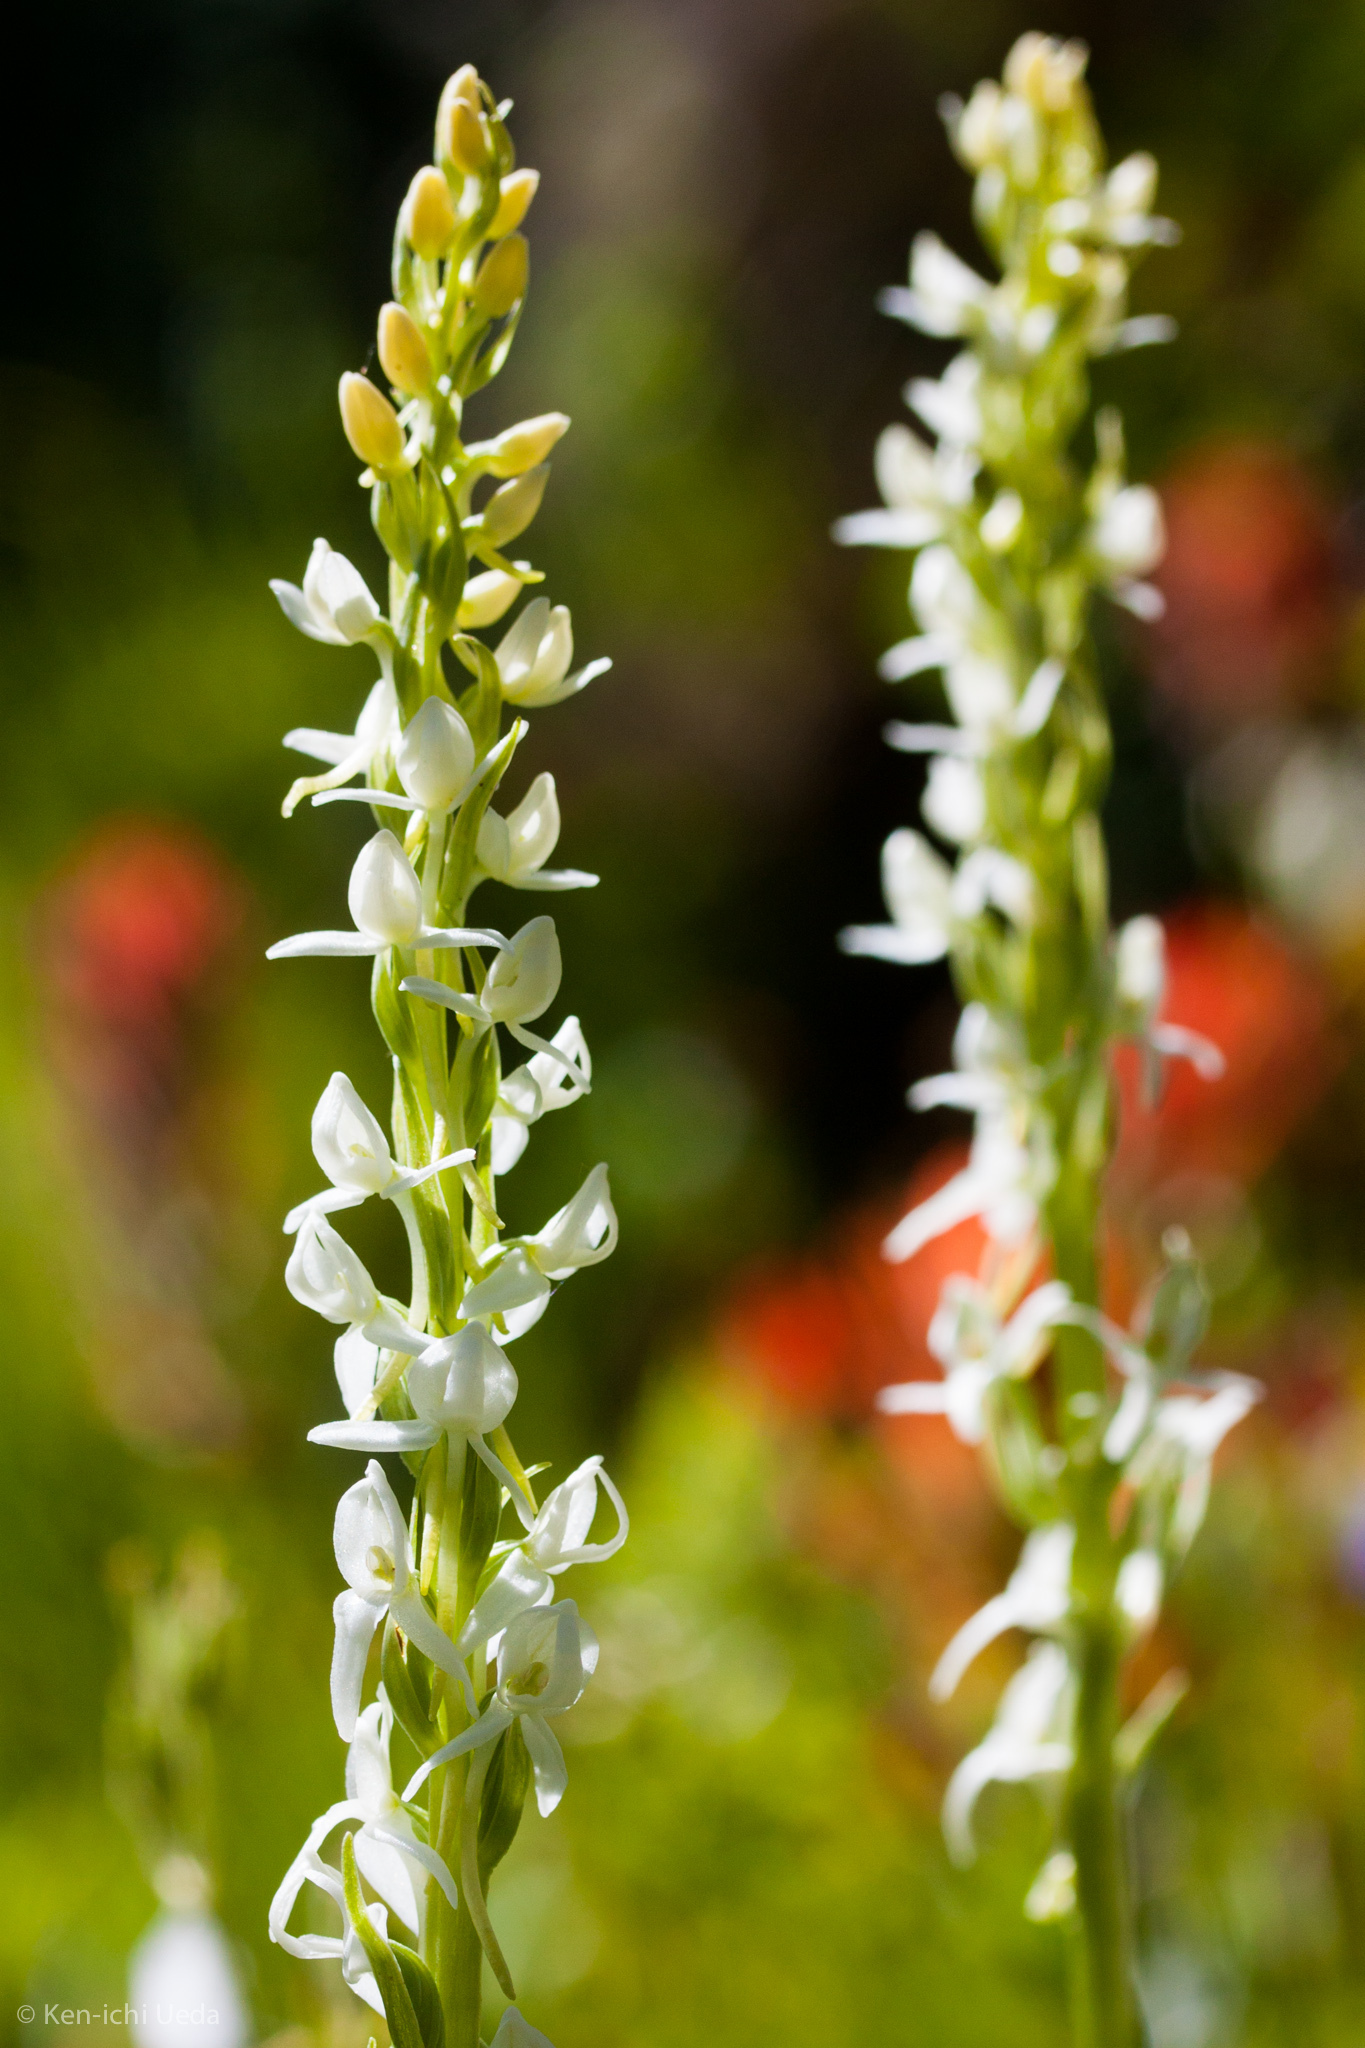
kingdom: Plantae
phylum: Tracheophyta
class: Liliopsida
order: Asparagales
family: Orchidaceae
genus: Platanthera
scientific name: Platanthera dilatata
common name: Bog candles
